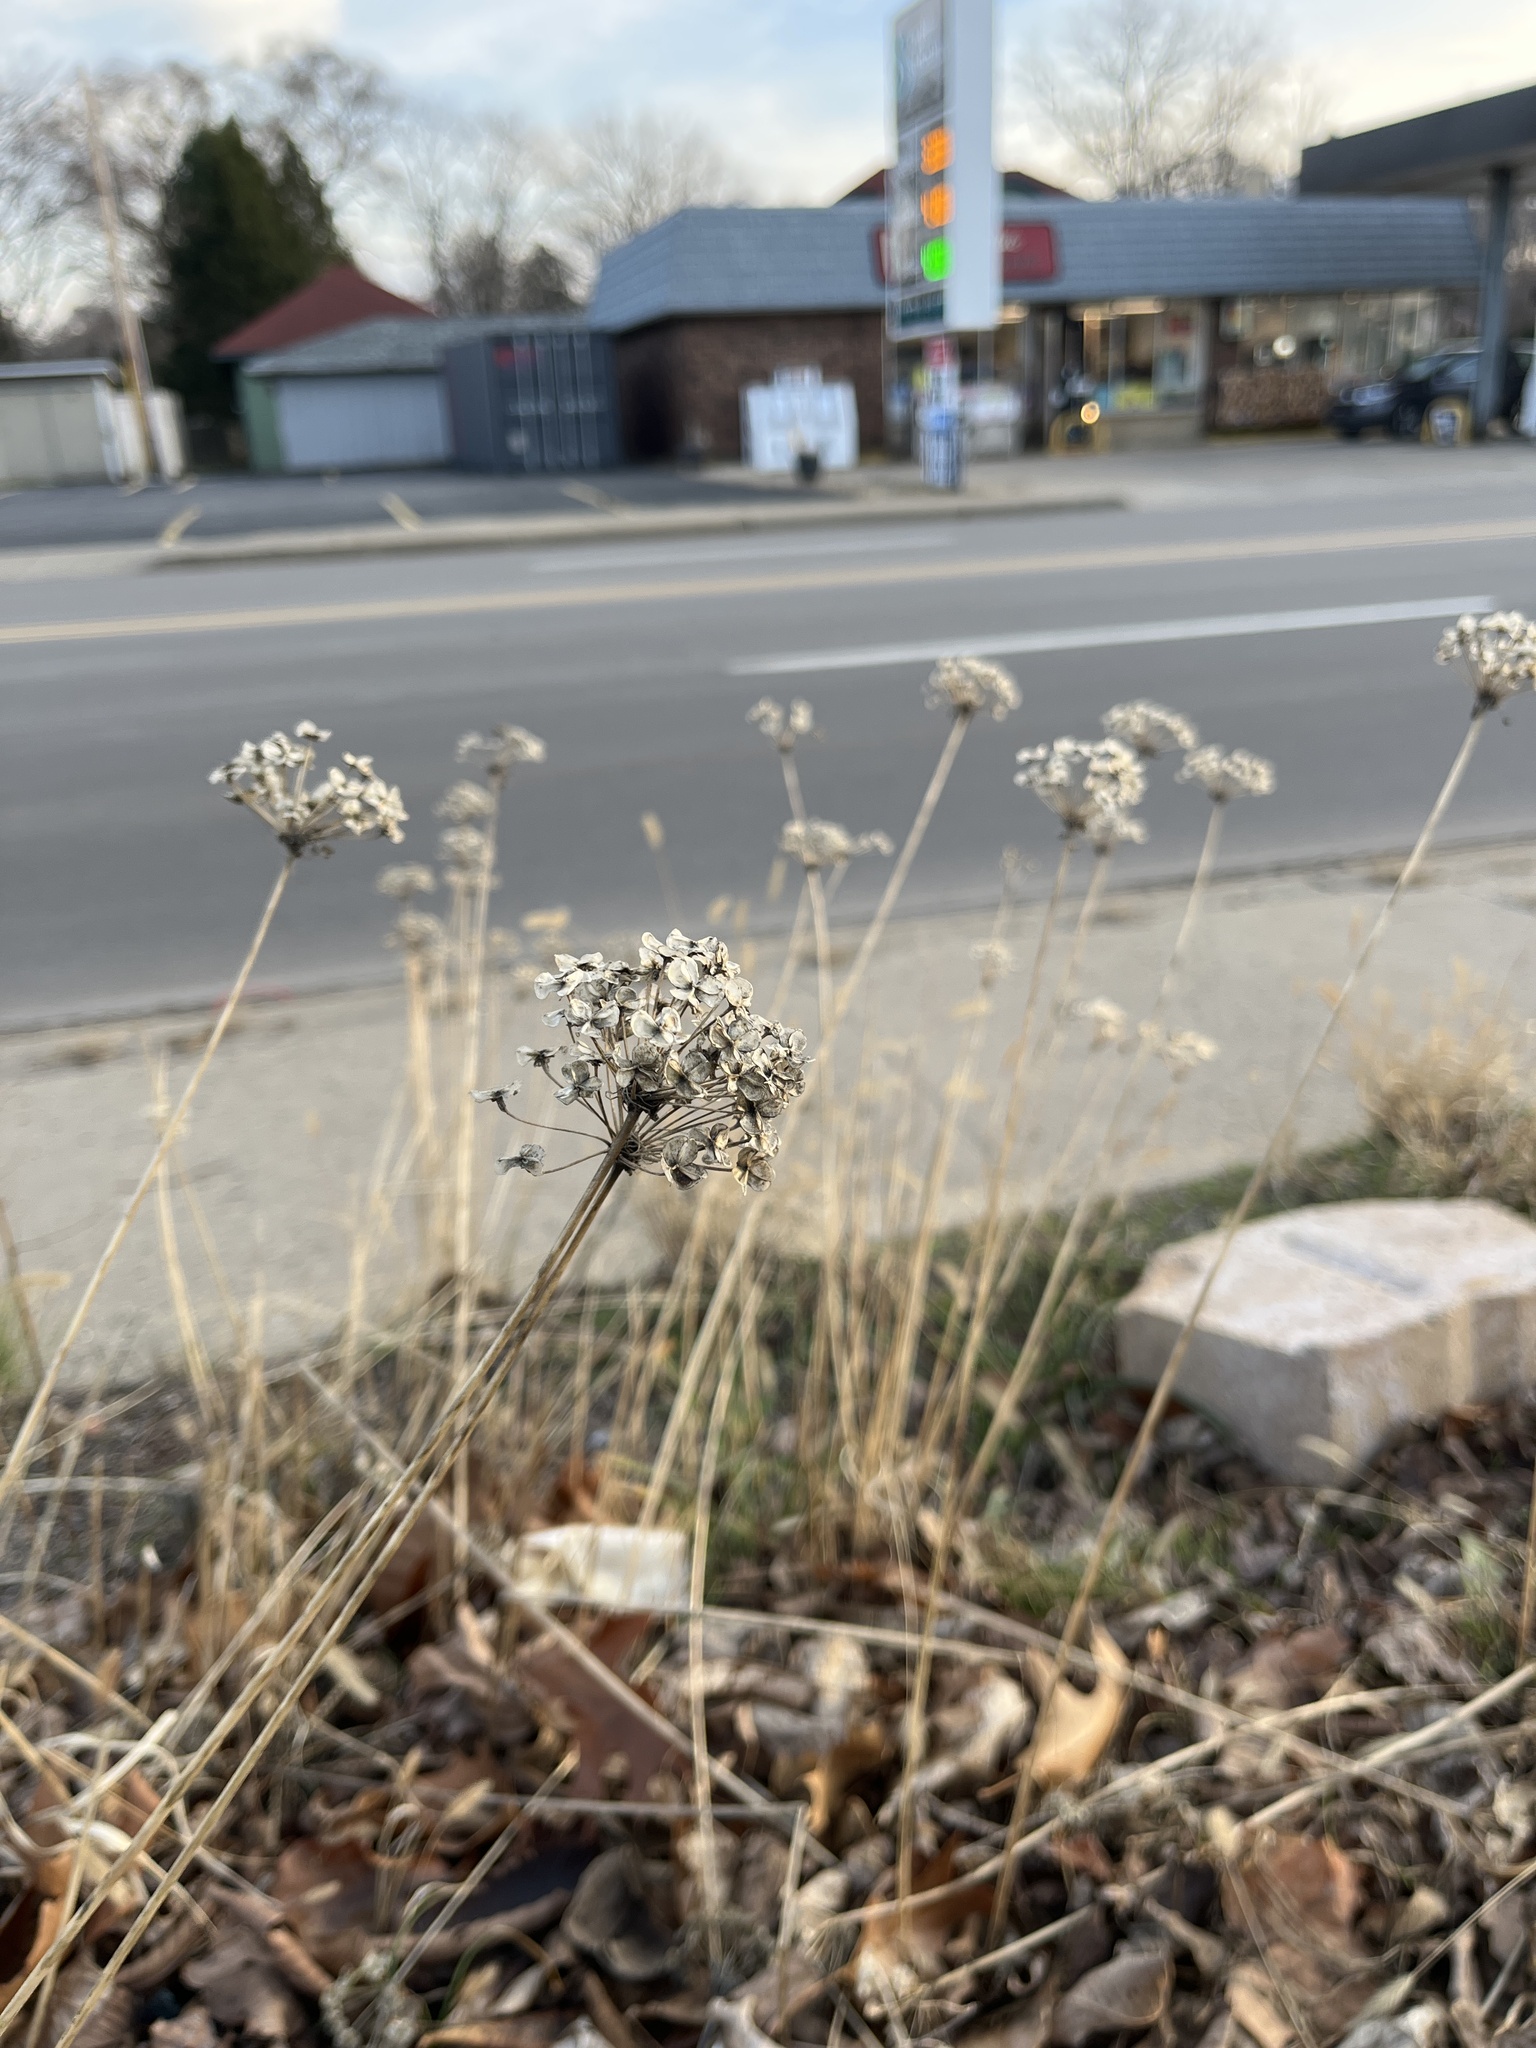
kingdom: Plantae
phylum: Tracheophyta
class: Magnoliopsida
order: Apiales
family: Apiaceae
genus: Daucus
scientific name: Daucus carota
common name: Wild carrot
